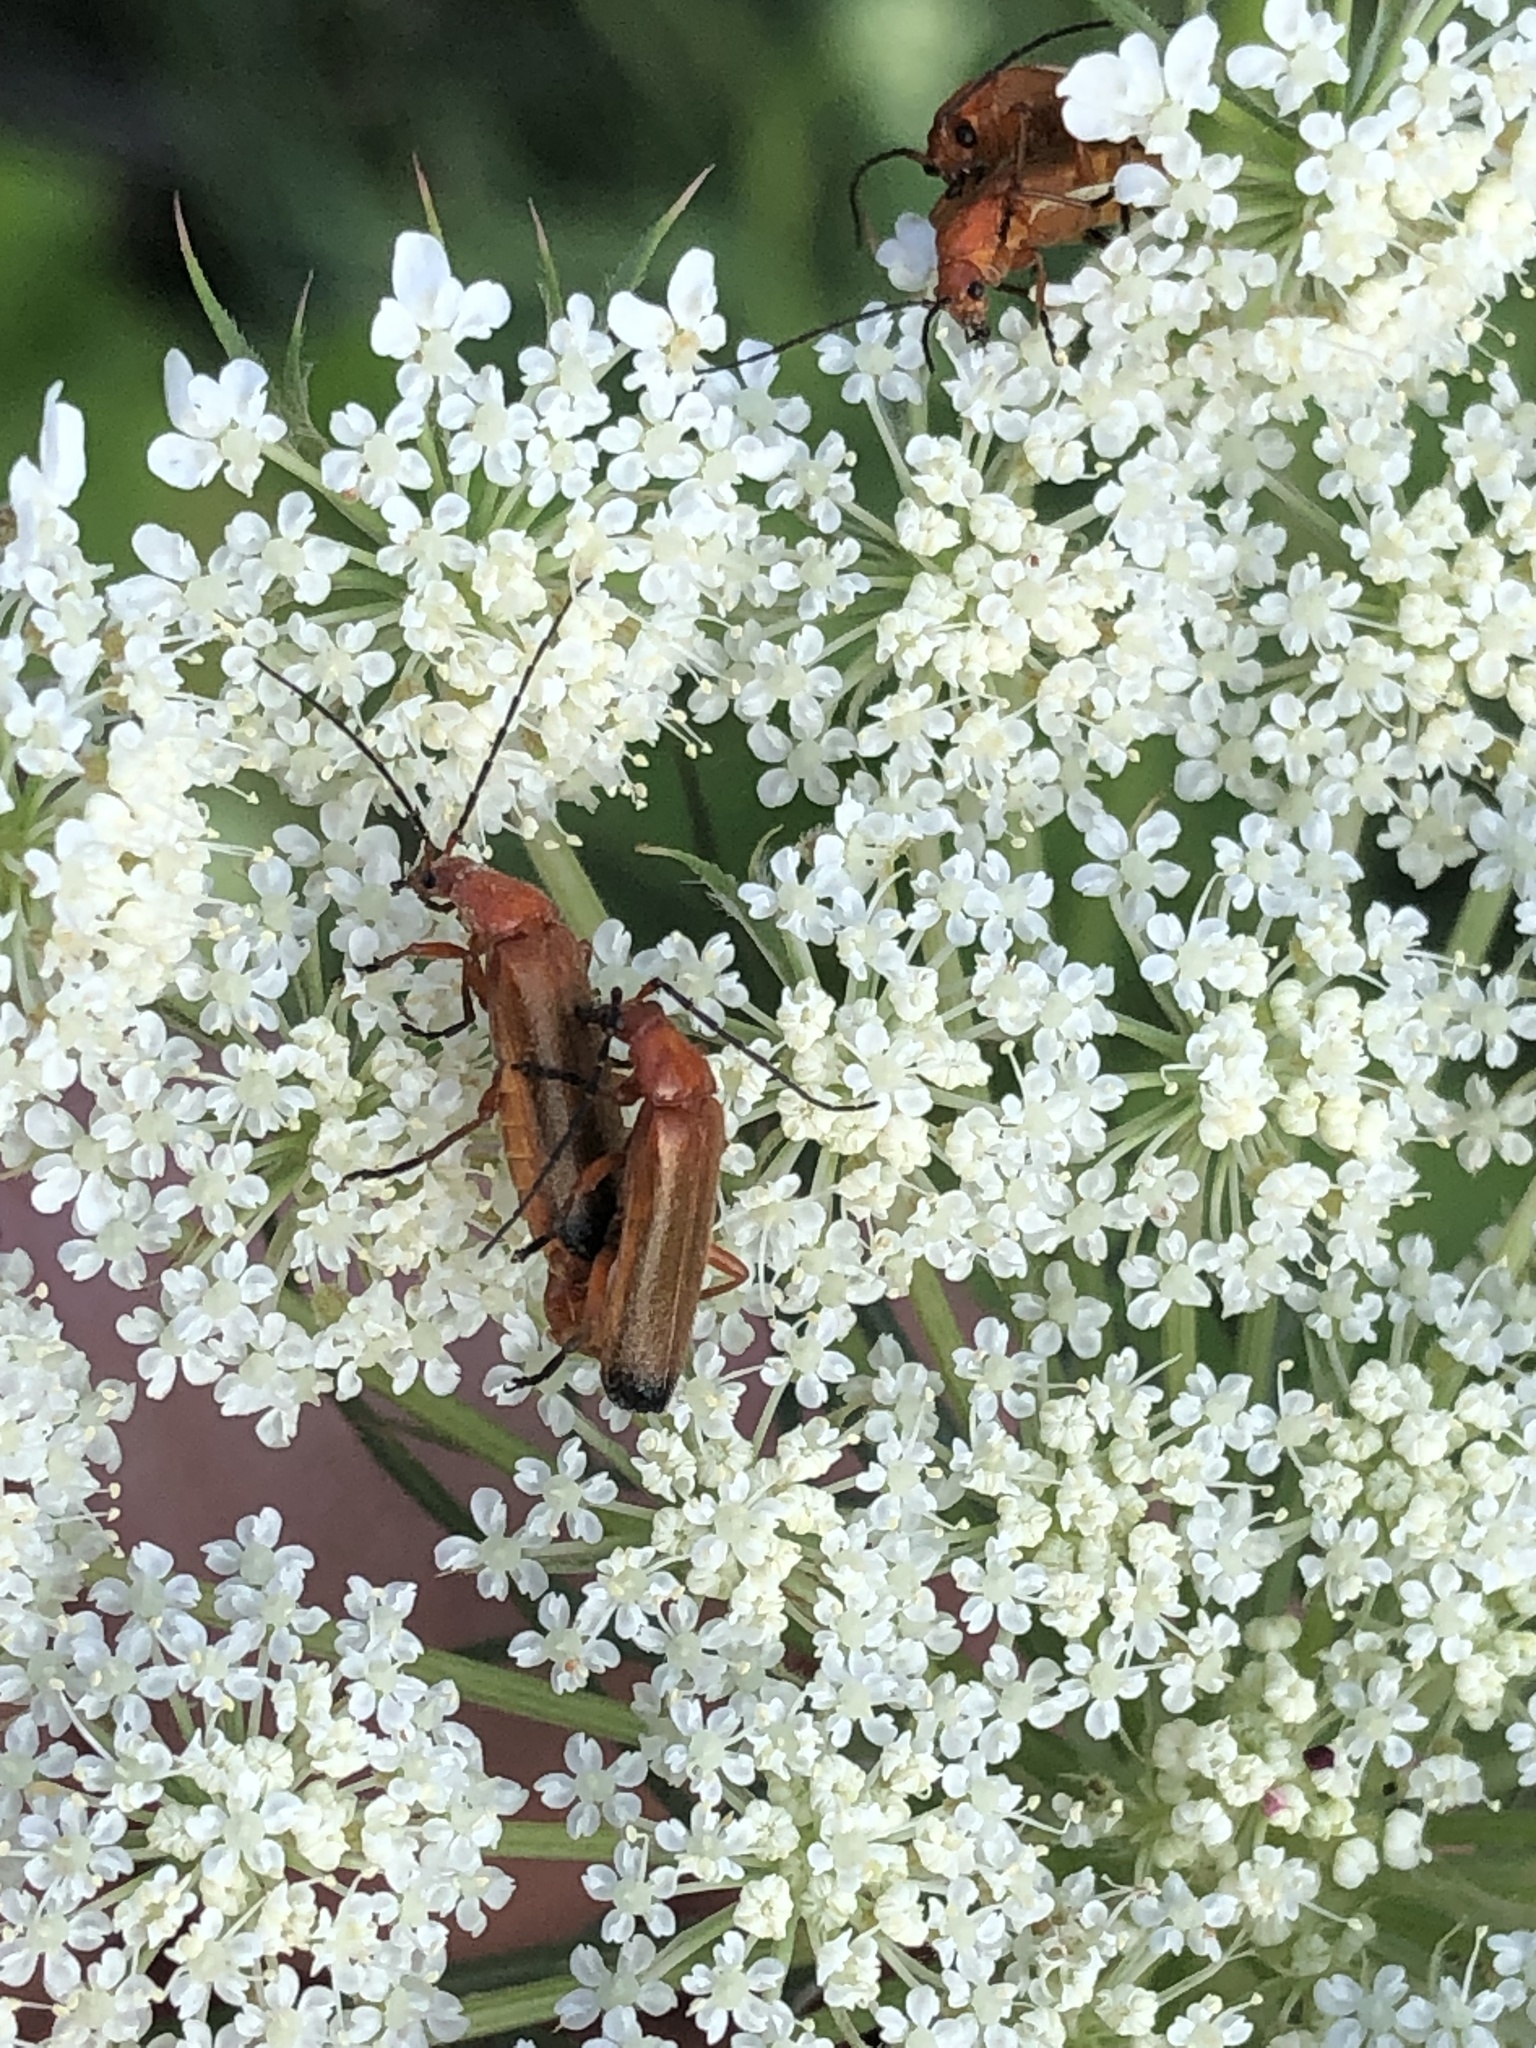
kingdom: Animalia
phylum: Arthropoda
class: Insecta
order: Coleoptera
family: Cantharidae
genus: Rhagonycha
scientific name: Rhagonycha fulva
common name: Common red soldier beetle
